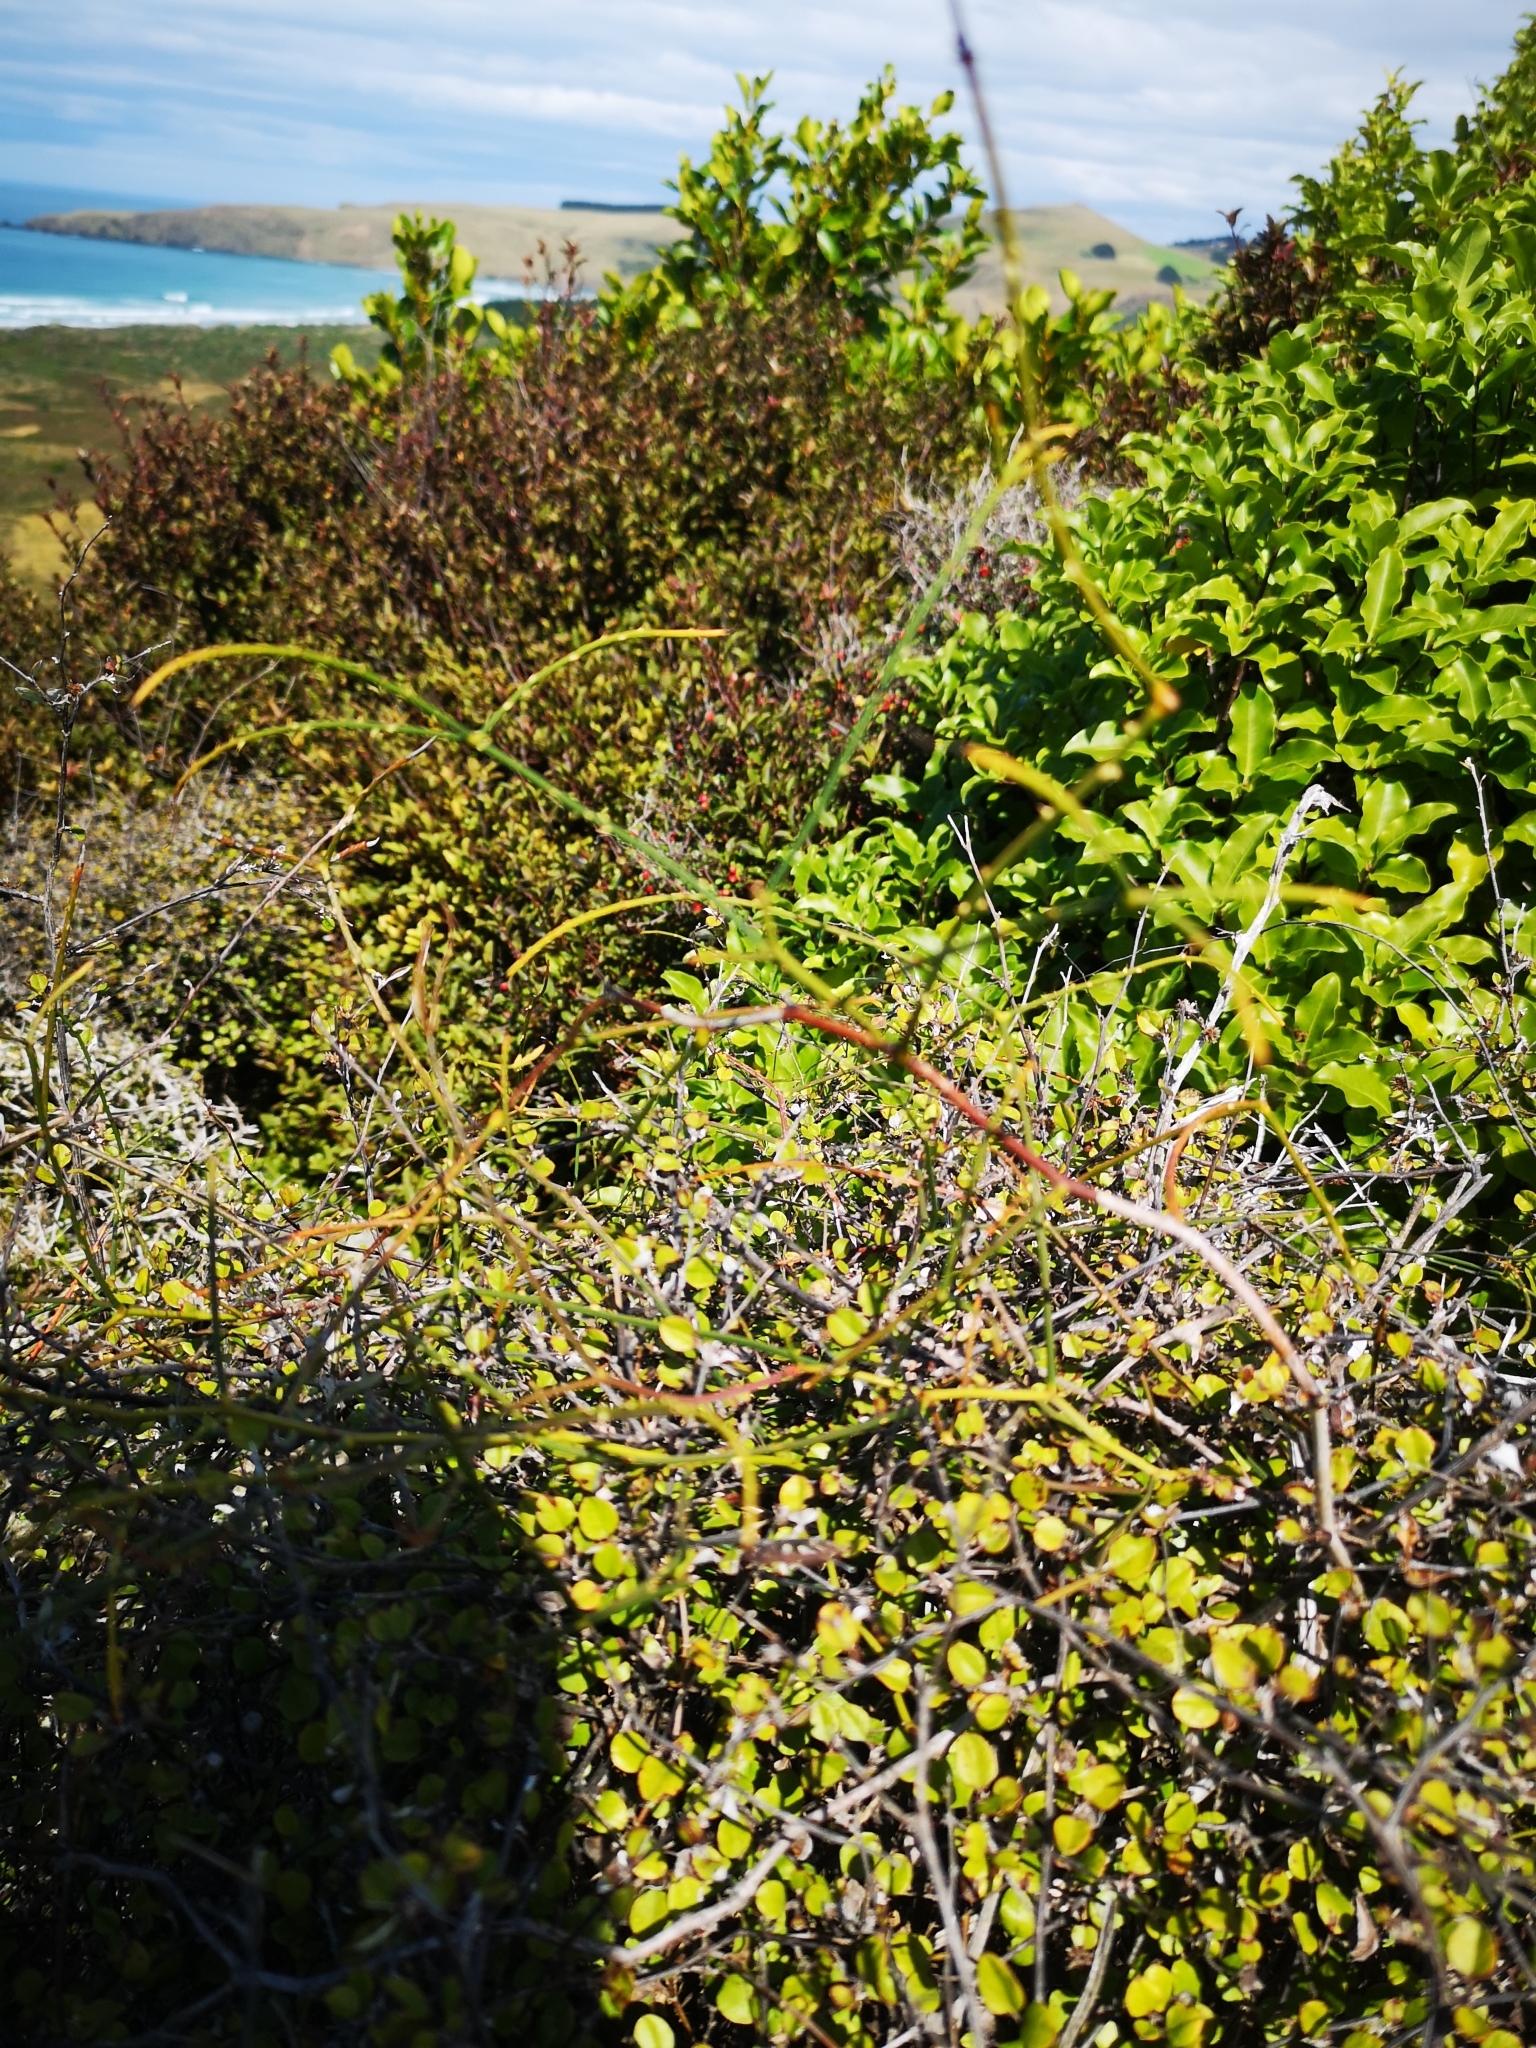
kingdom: Plantae
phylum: Tracheophyta
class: Magnoliopsida
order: Rosales
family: Rosaceae
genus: Rubus
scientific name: Rubus squarrosus
